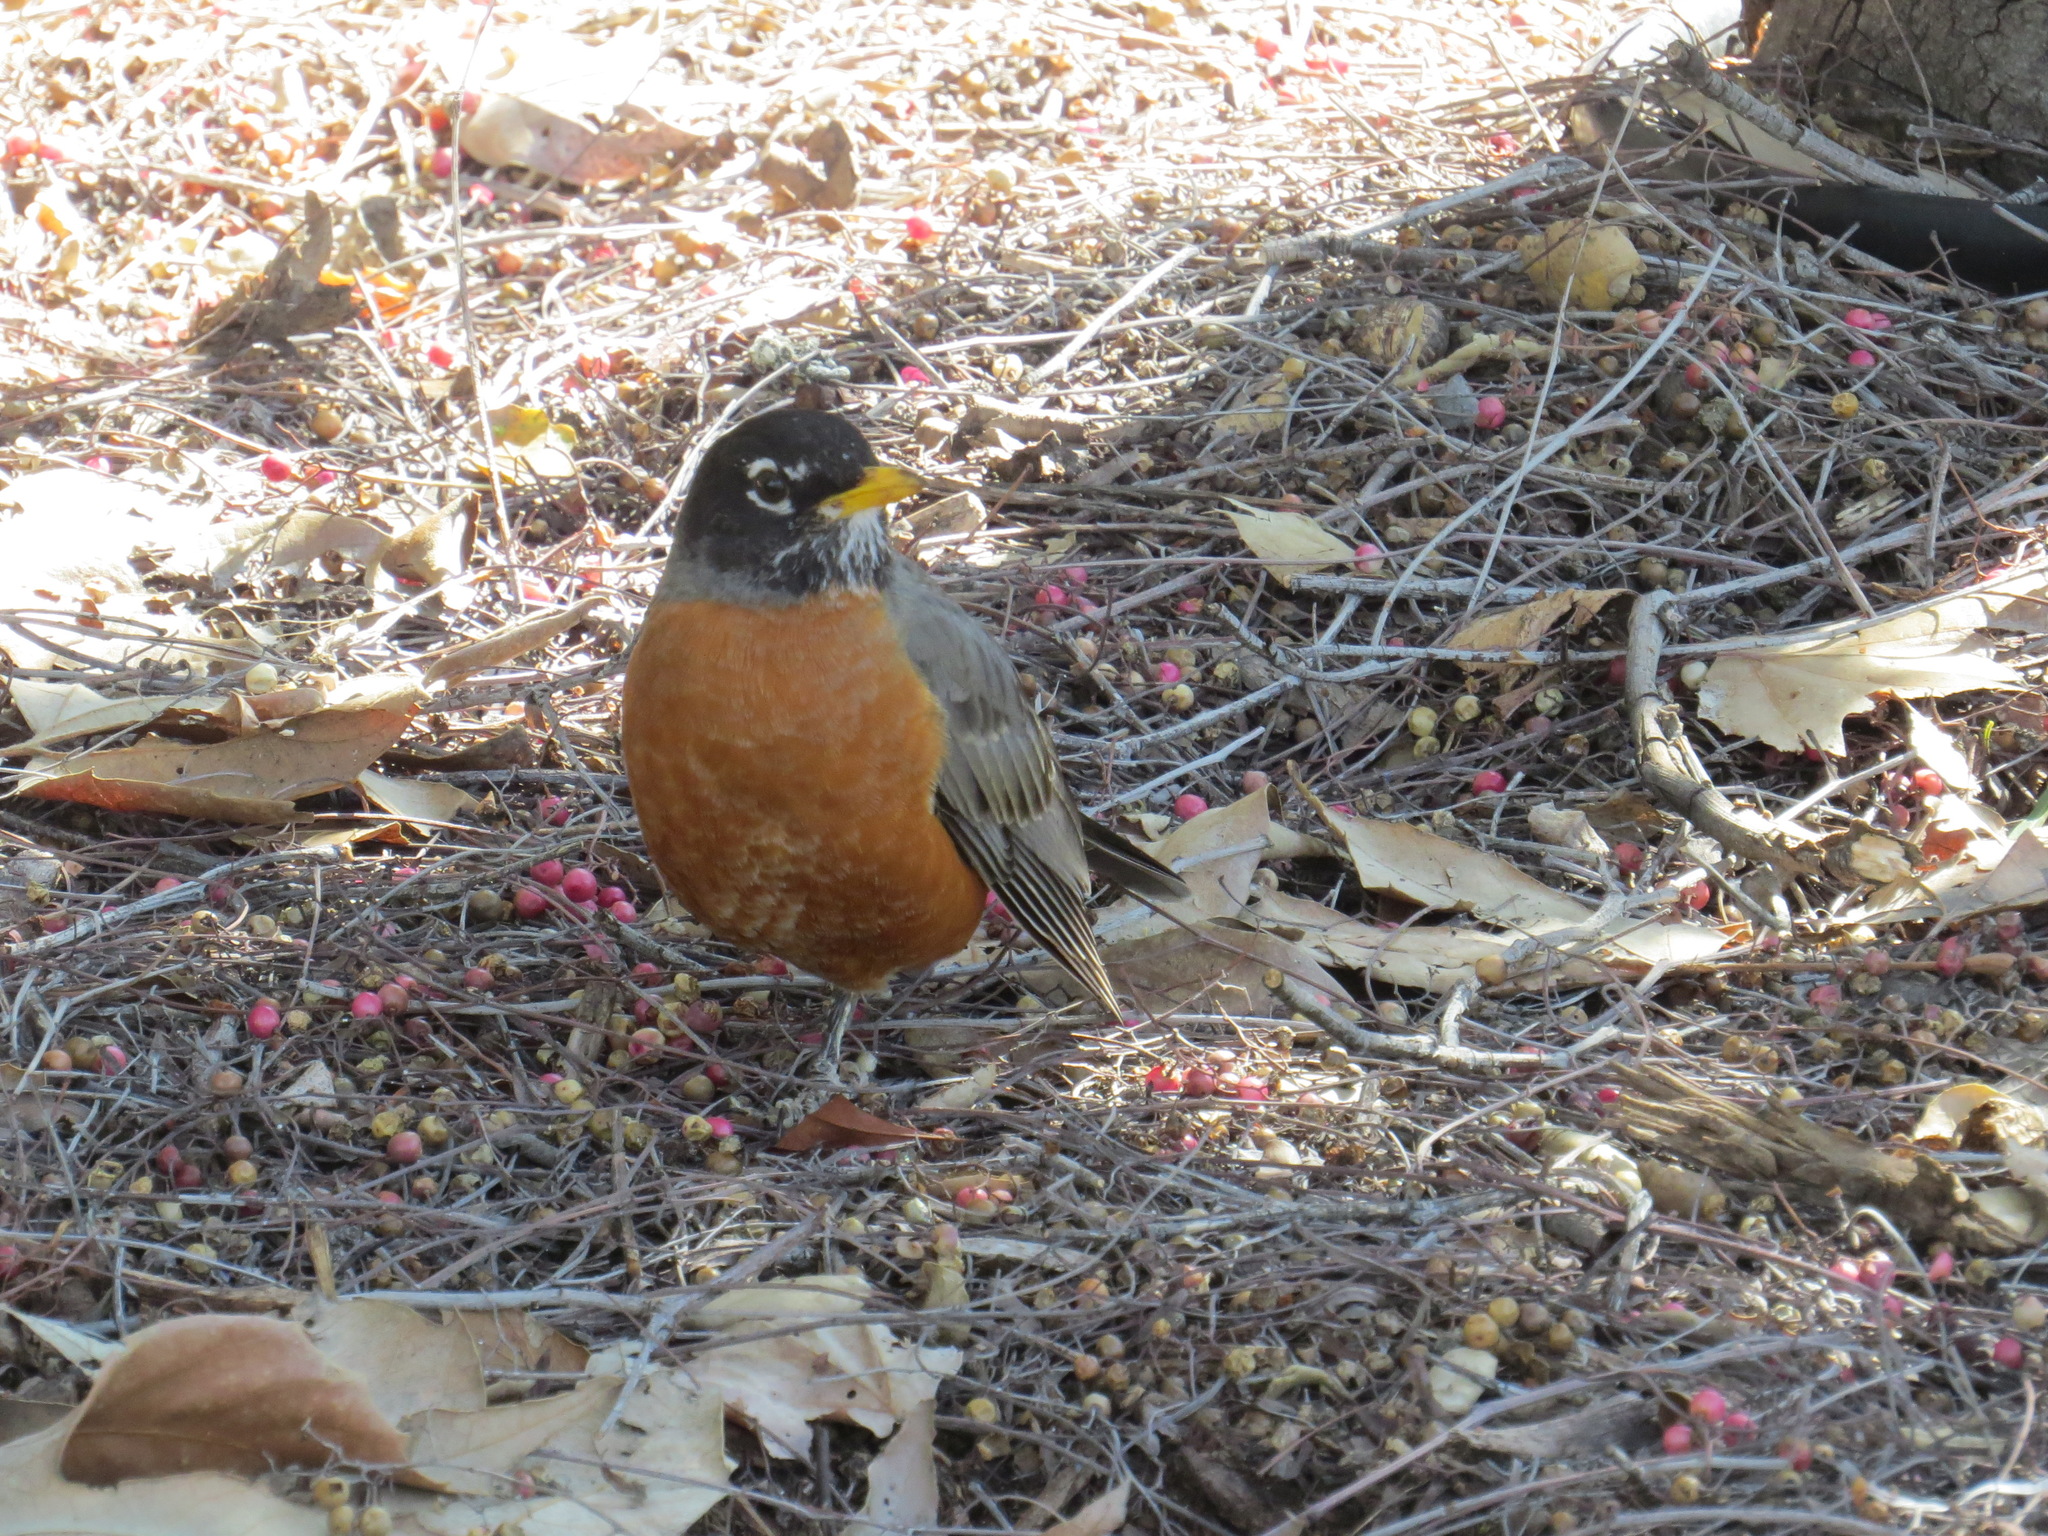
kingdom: Animalia
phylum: Chordata
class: Aves
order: Passeriformes
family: Turdidae
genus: Turdus
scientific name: Turdus migratorius
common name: American robin
